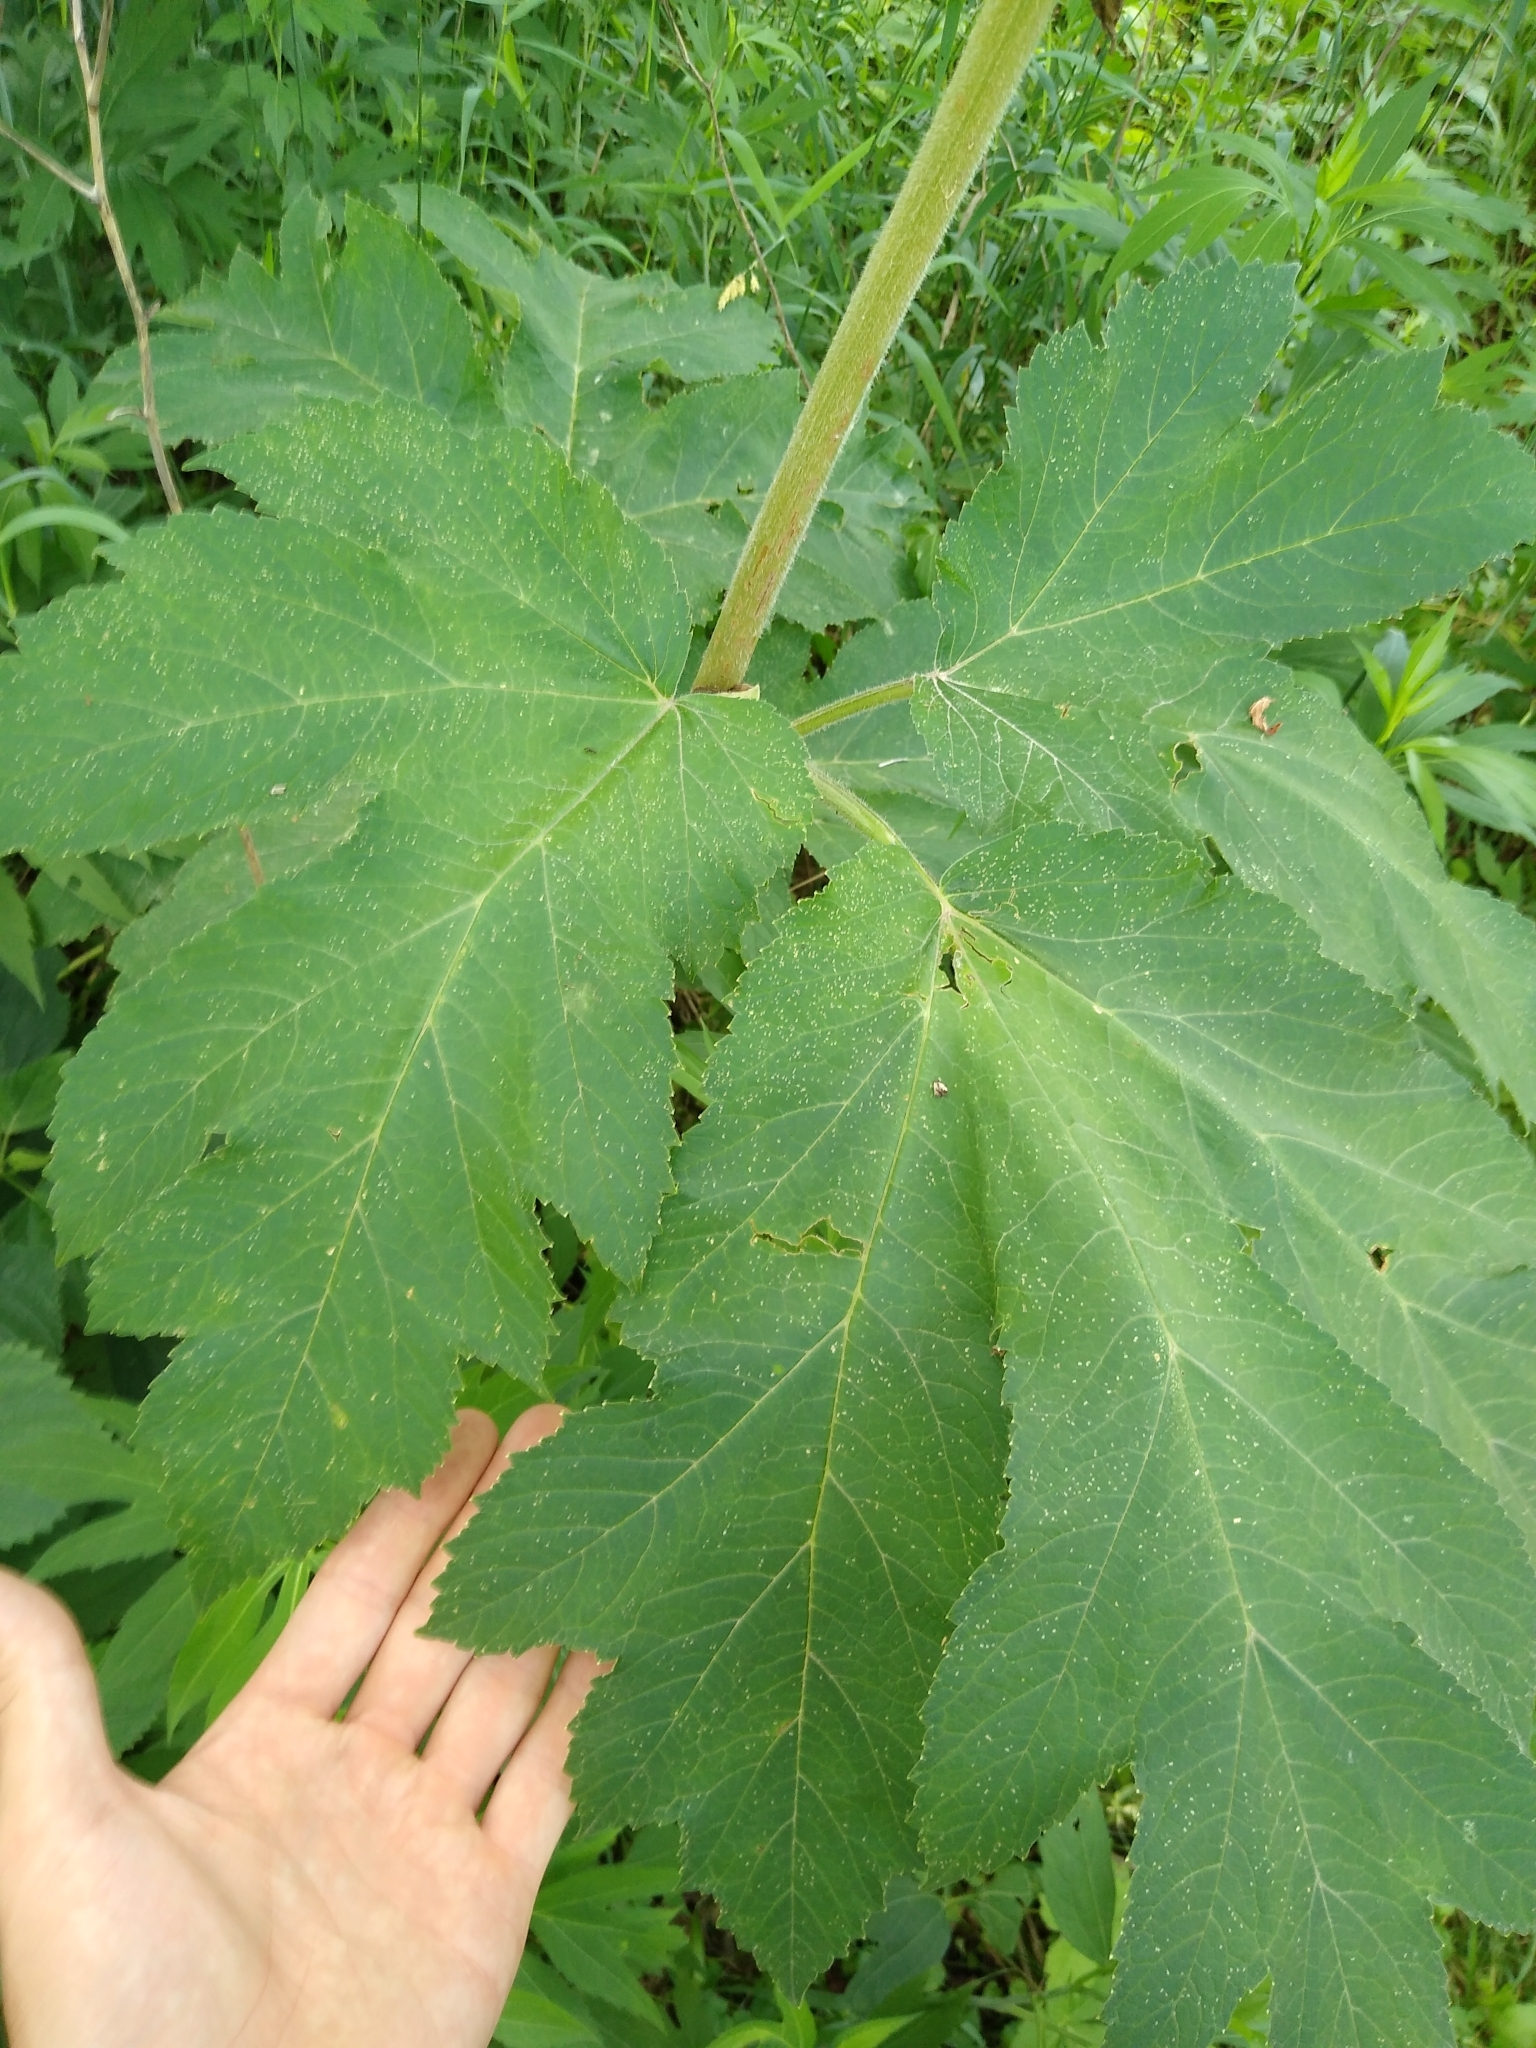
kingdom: Plantae
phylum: Tracheophyta
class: Magnoliopsida
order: Apiales
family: Apiaceae
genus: Heracleum
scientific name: Heracleum maximum
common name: American cow parsnip
